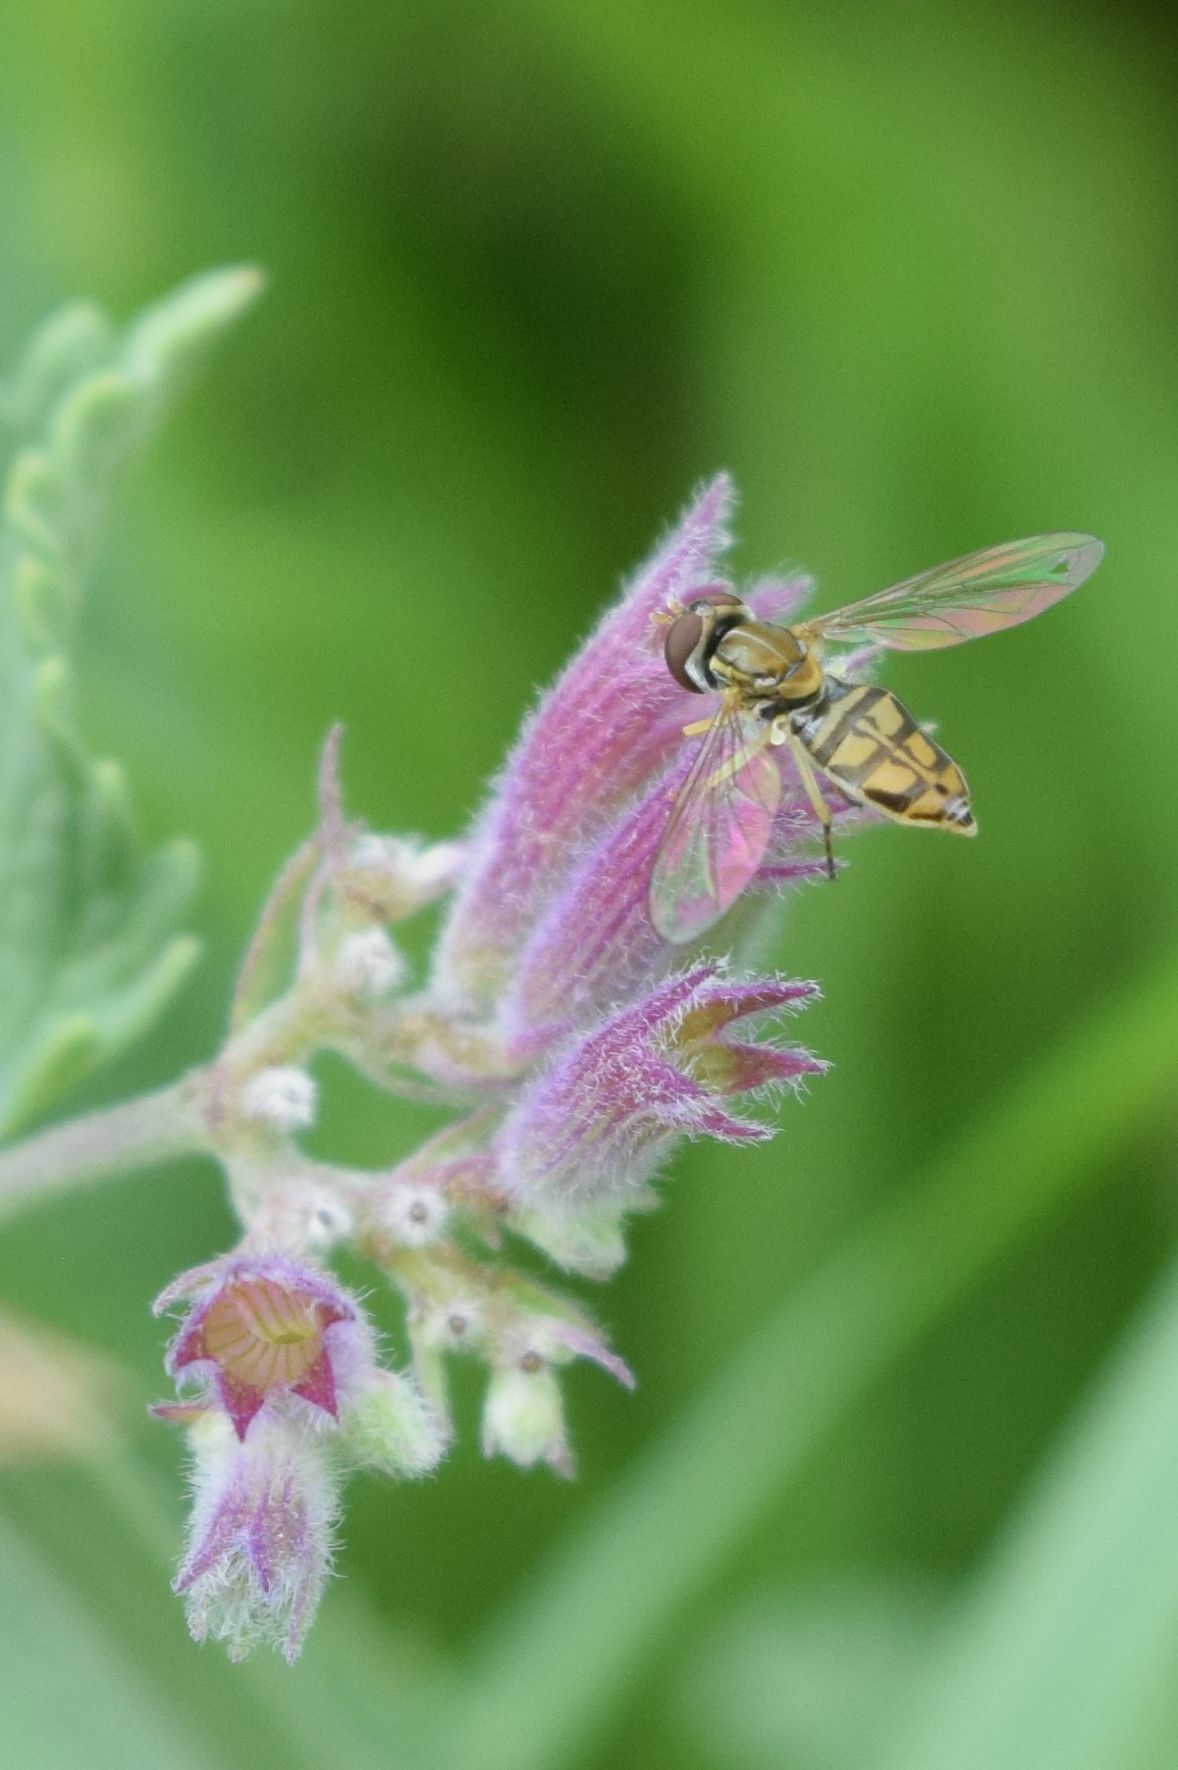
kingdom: Animalia
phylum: Arthropoda
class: Insecta
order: Diptera
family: Syrphidae
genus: Toxomerus
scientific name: Toxomerus marginatus
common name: Syrphid fly
